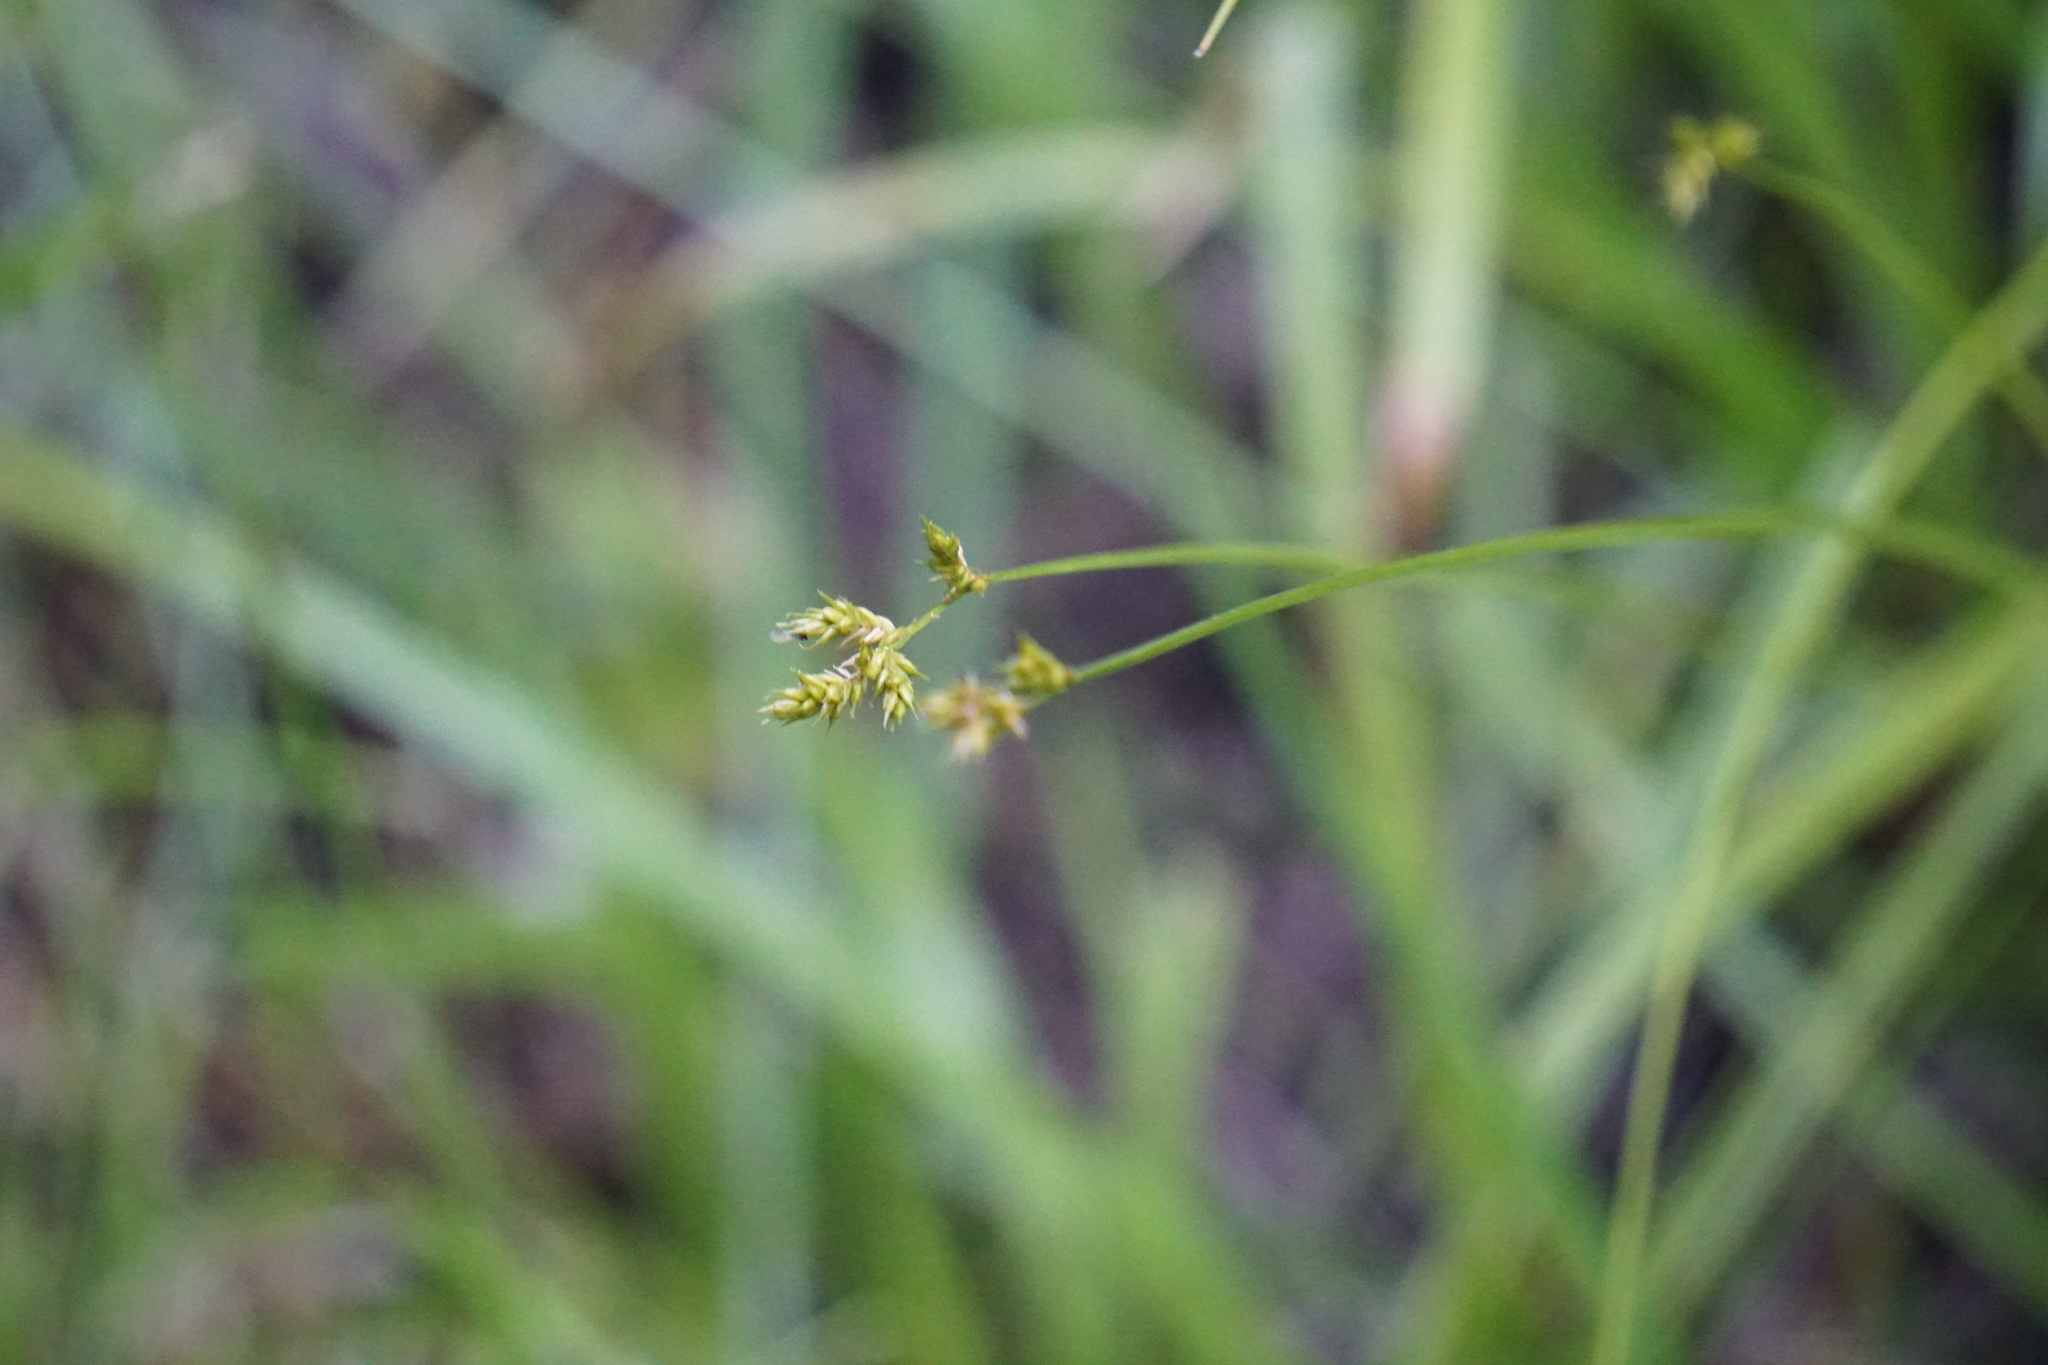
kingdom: Plantae
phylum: Tracheophyta
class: Liliopsida
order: Poales
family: Cyperaceae
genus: Carex
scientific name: Carex echinata
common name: Star sedge
